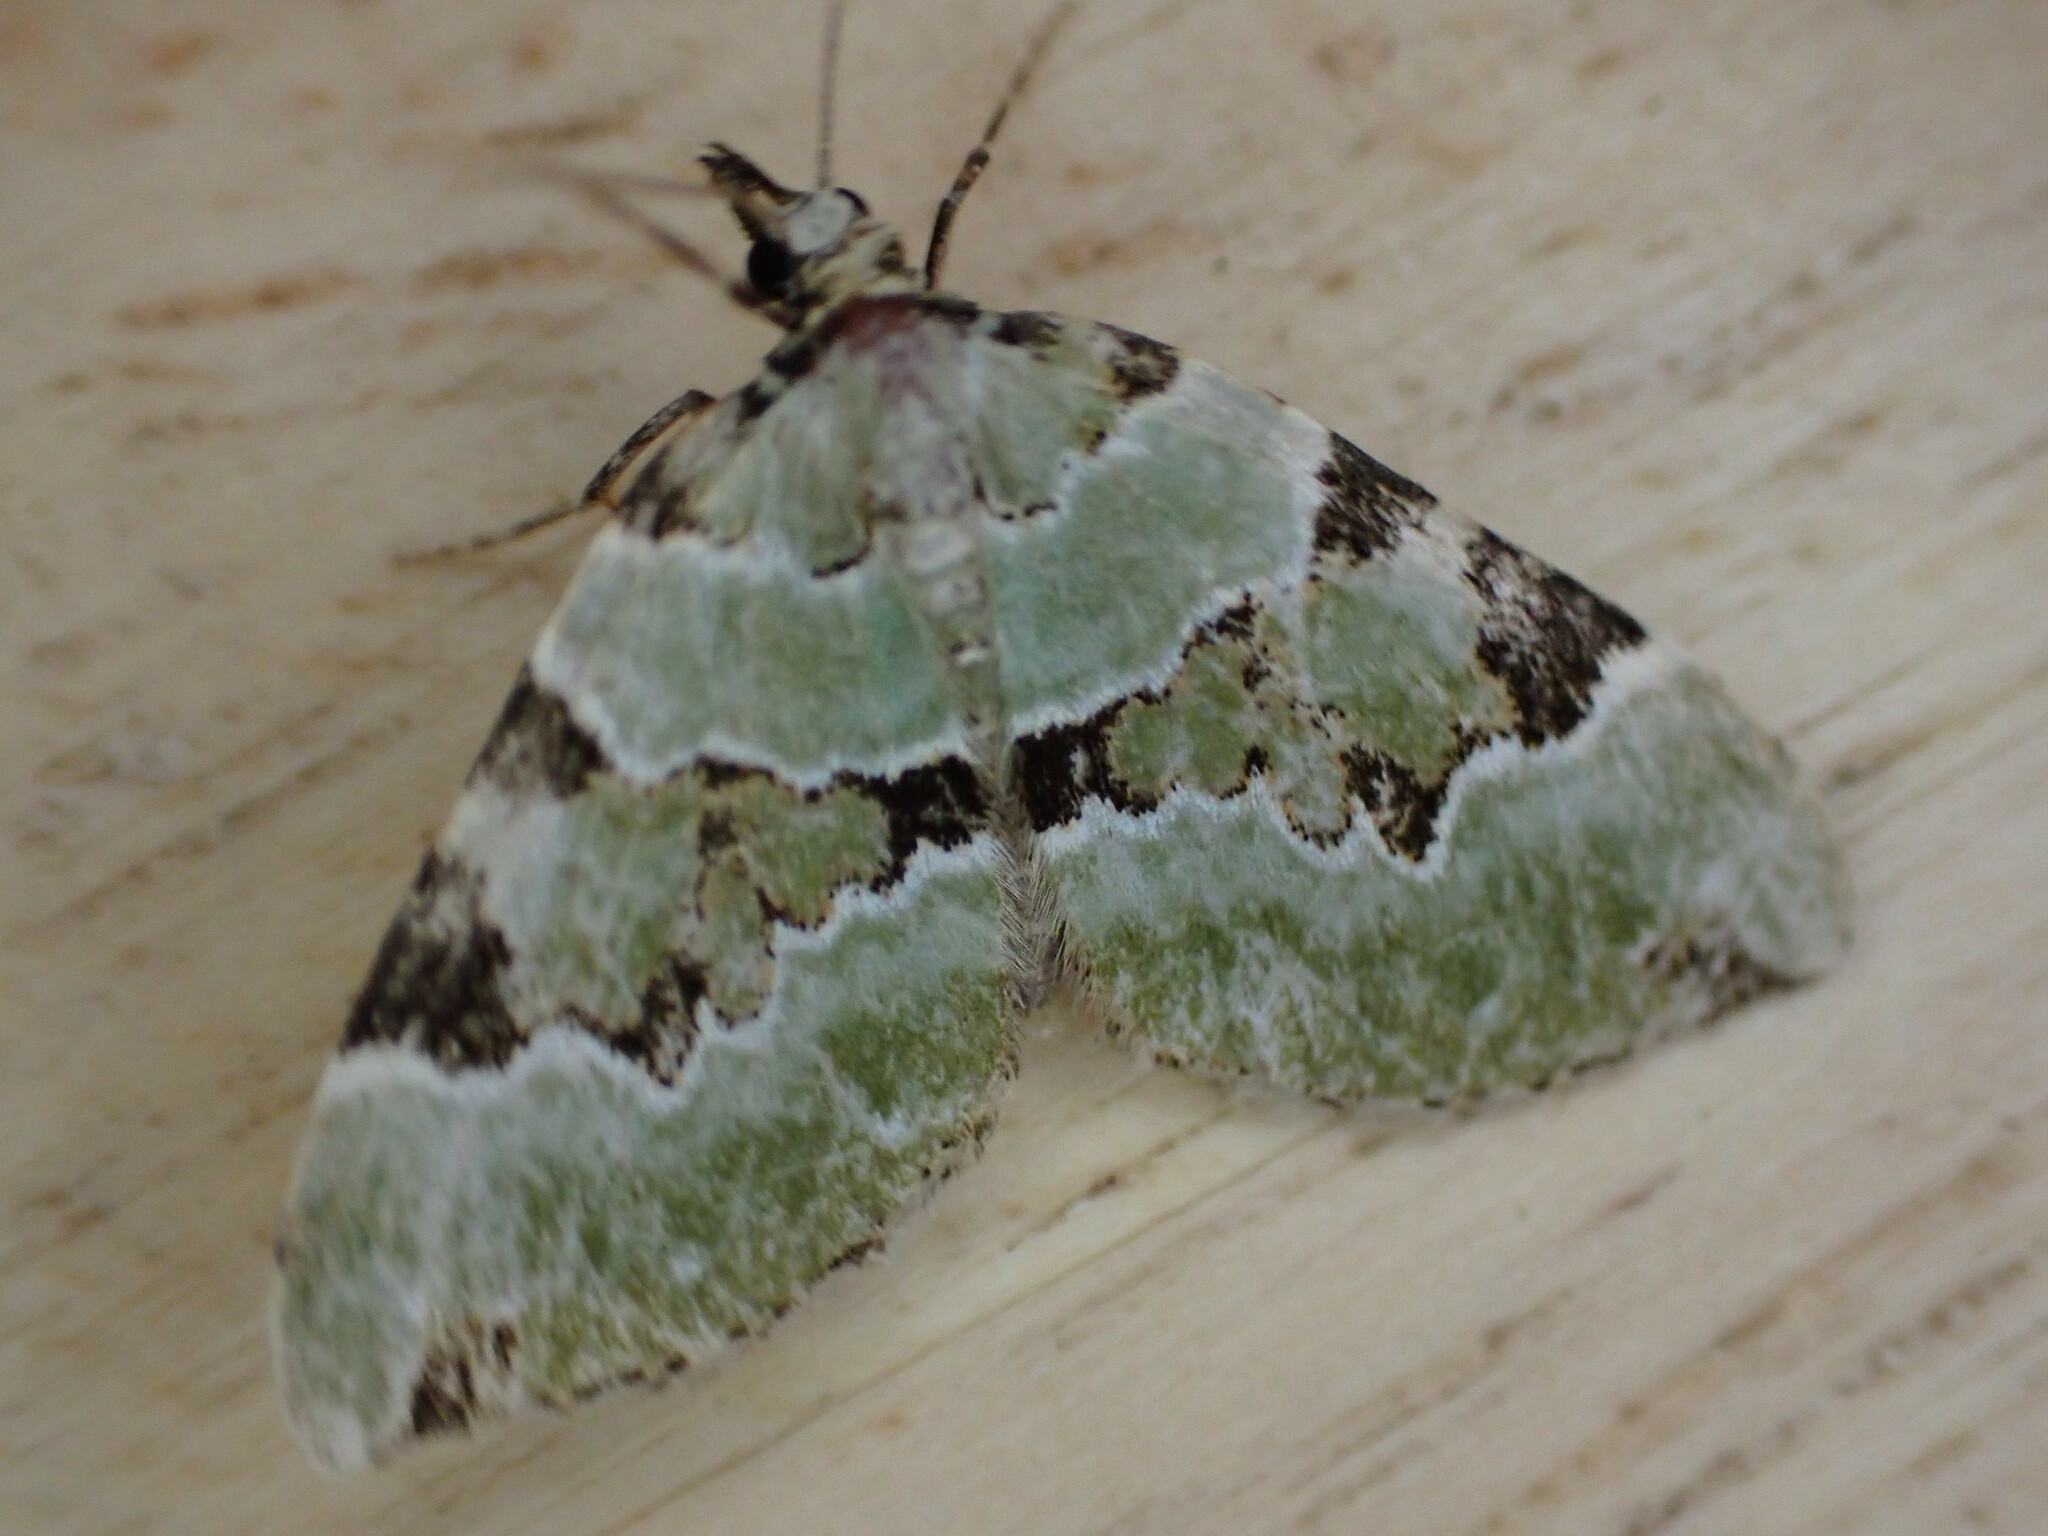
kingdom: Animalia
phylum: Arthropoda
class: Insecta
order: Lepidoptera
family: Geometridae
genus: Colostygia
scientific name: Colostygia pectinataria
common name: Green carpet
